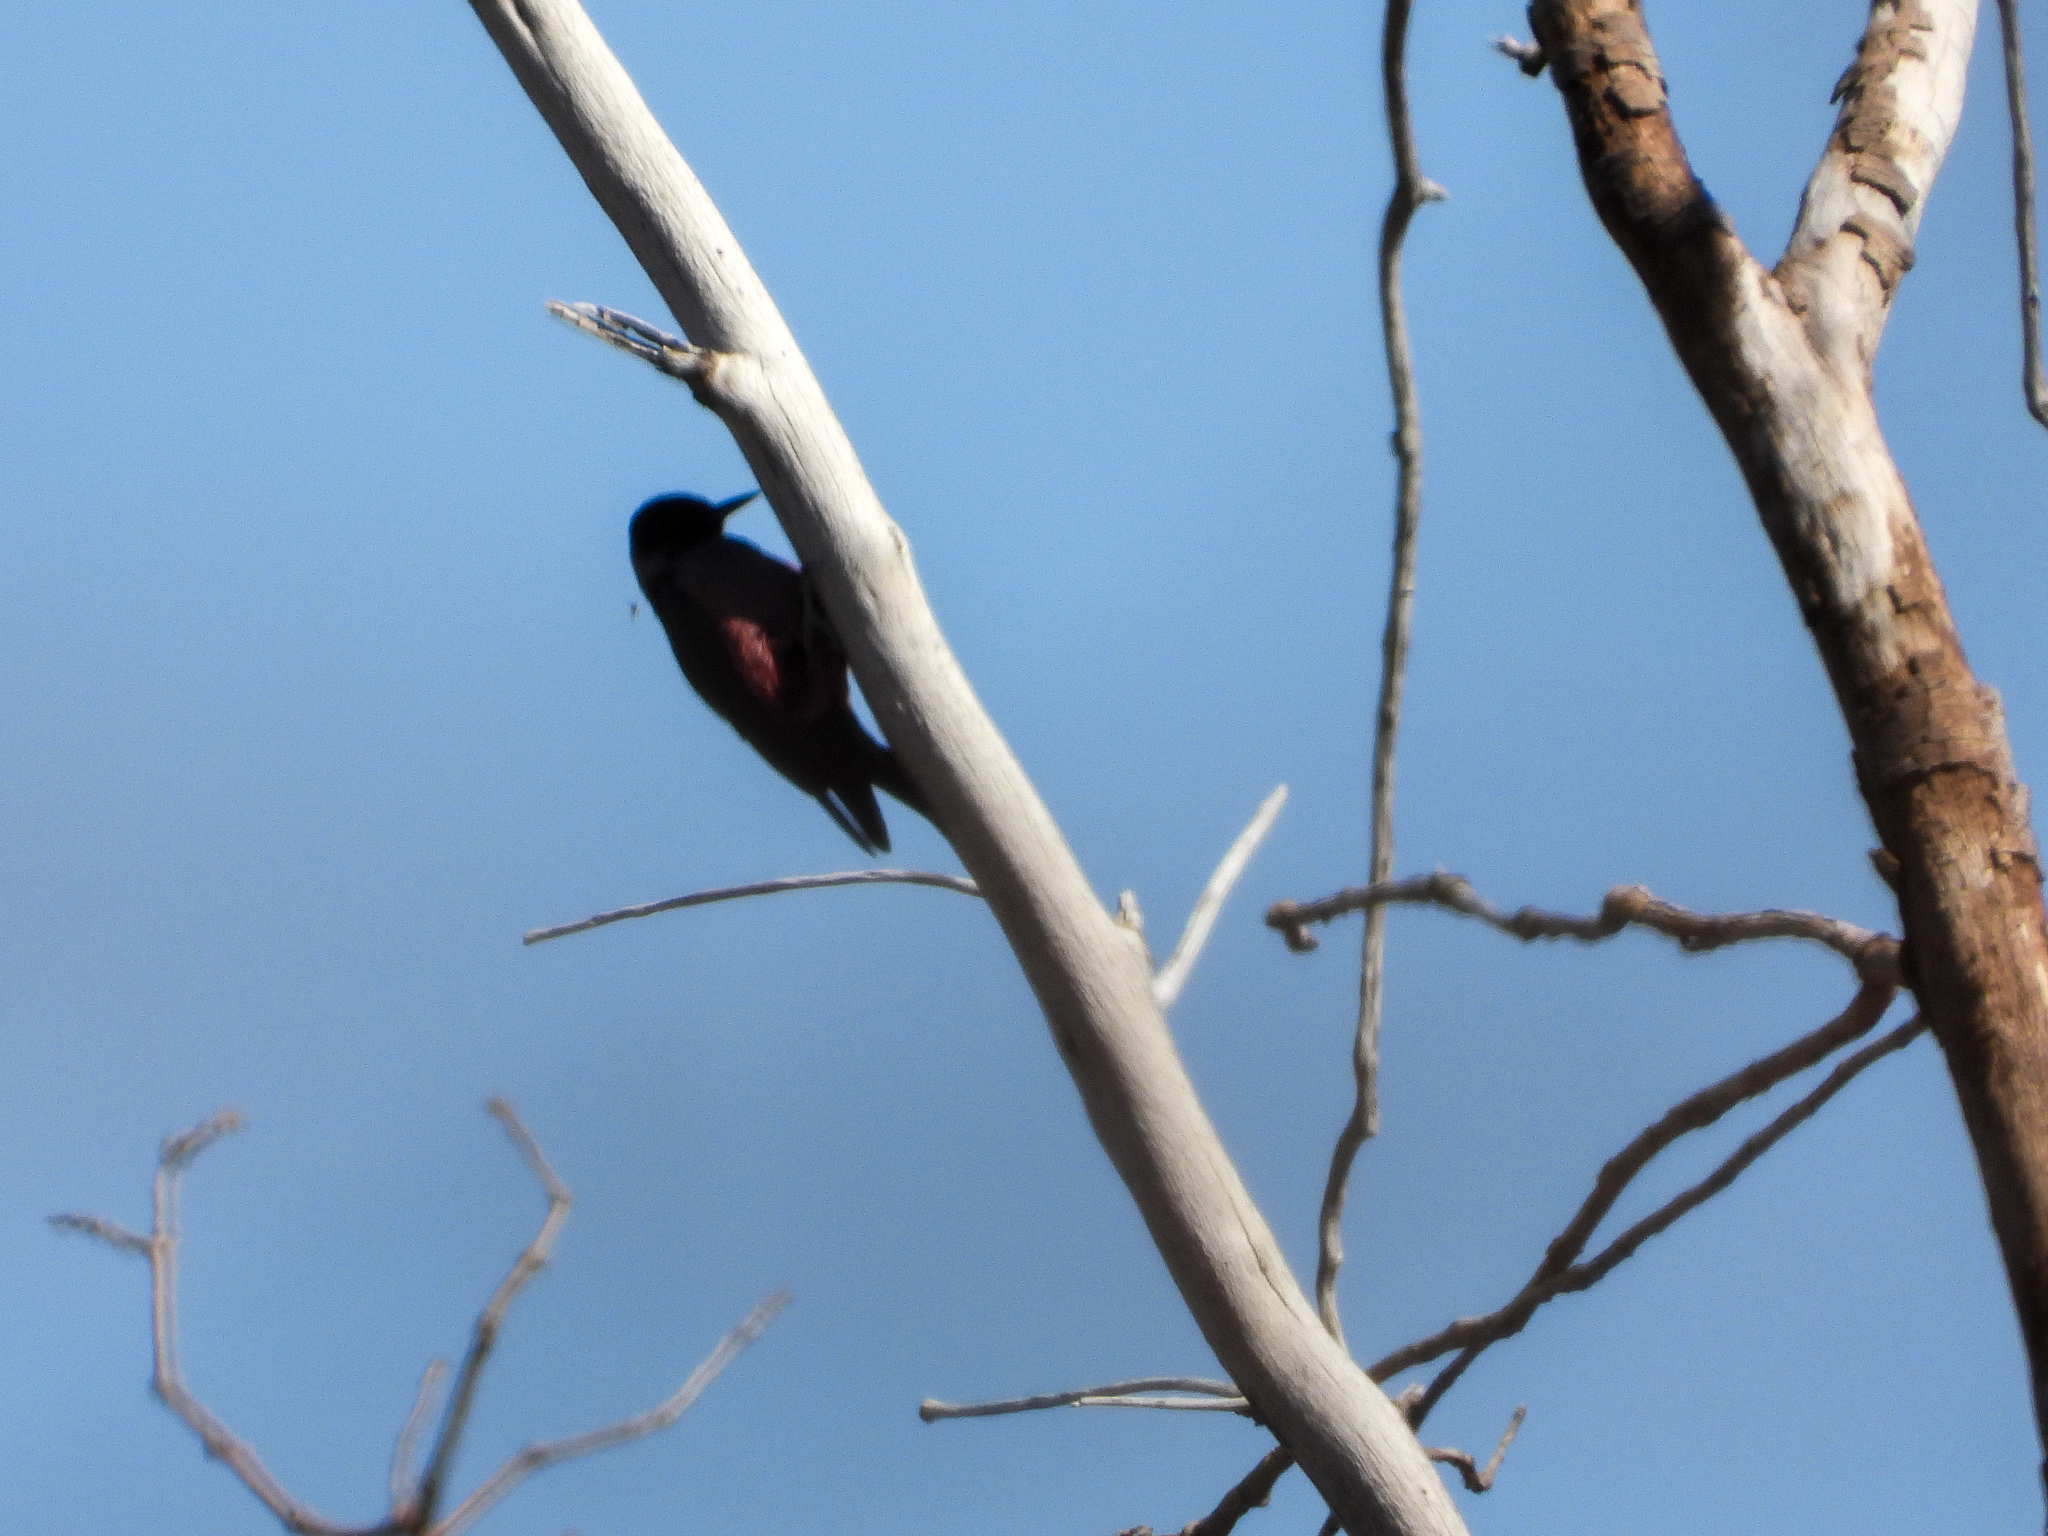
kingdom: Animalia
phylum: Chordata
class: Aves
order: Piciformes
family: Picidae
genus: Melanerpes
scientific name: Melanerpes lewis
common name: Lewis's woodpecker
